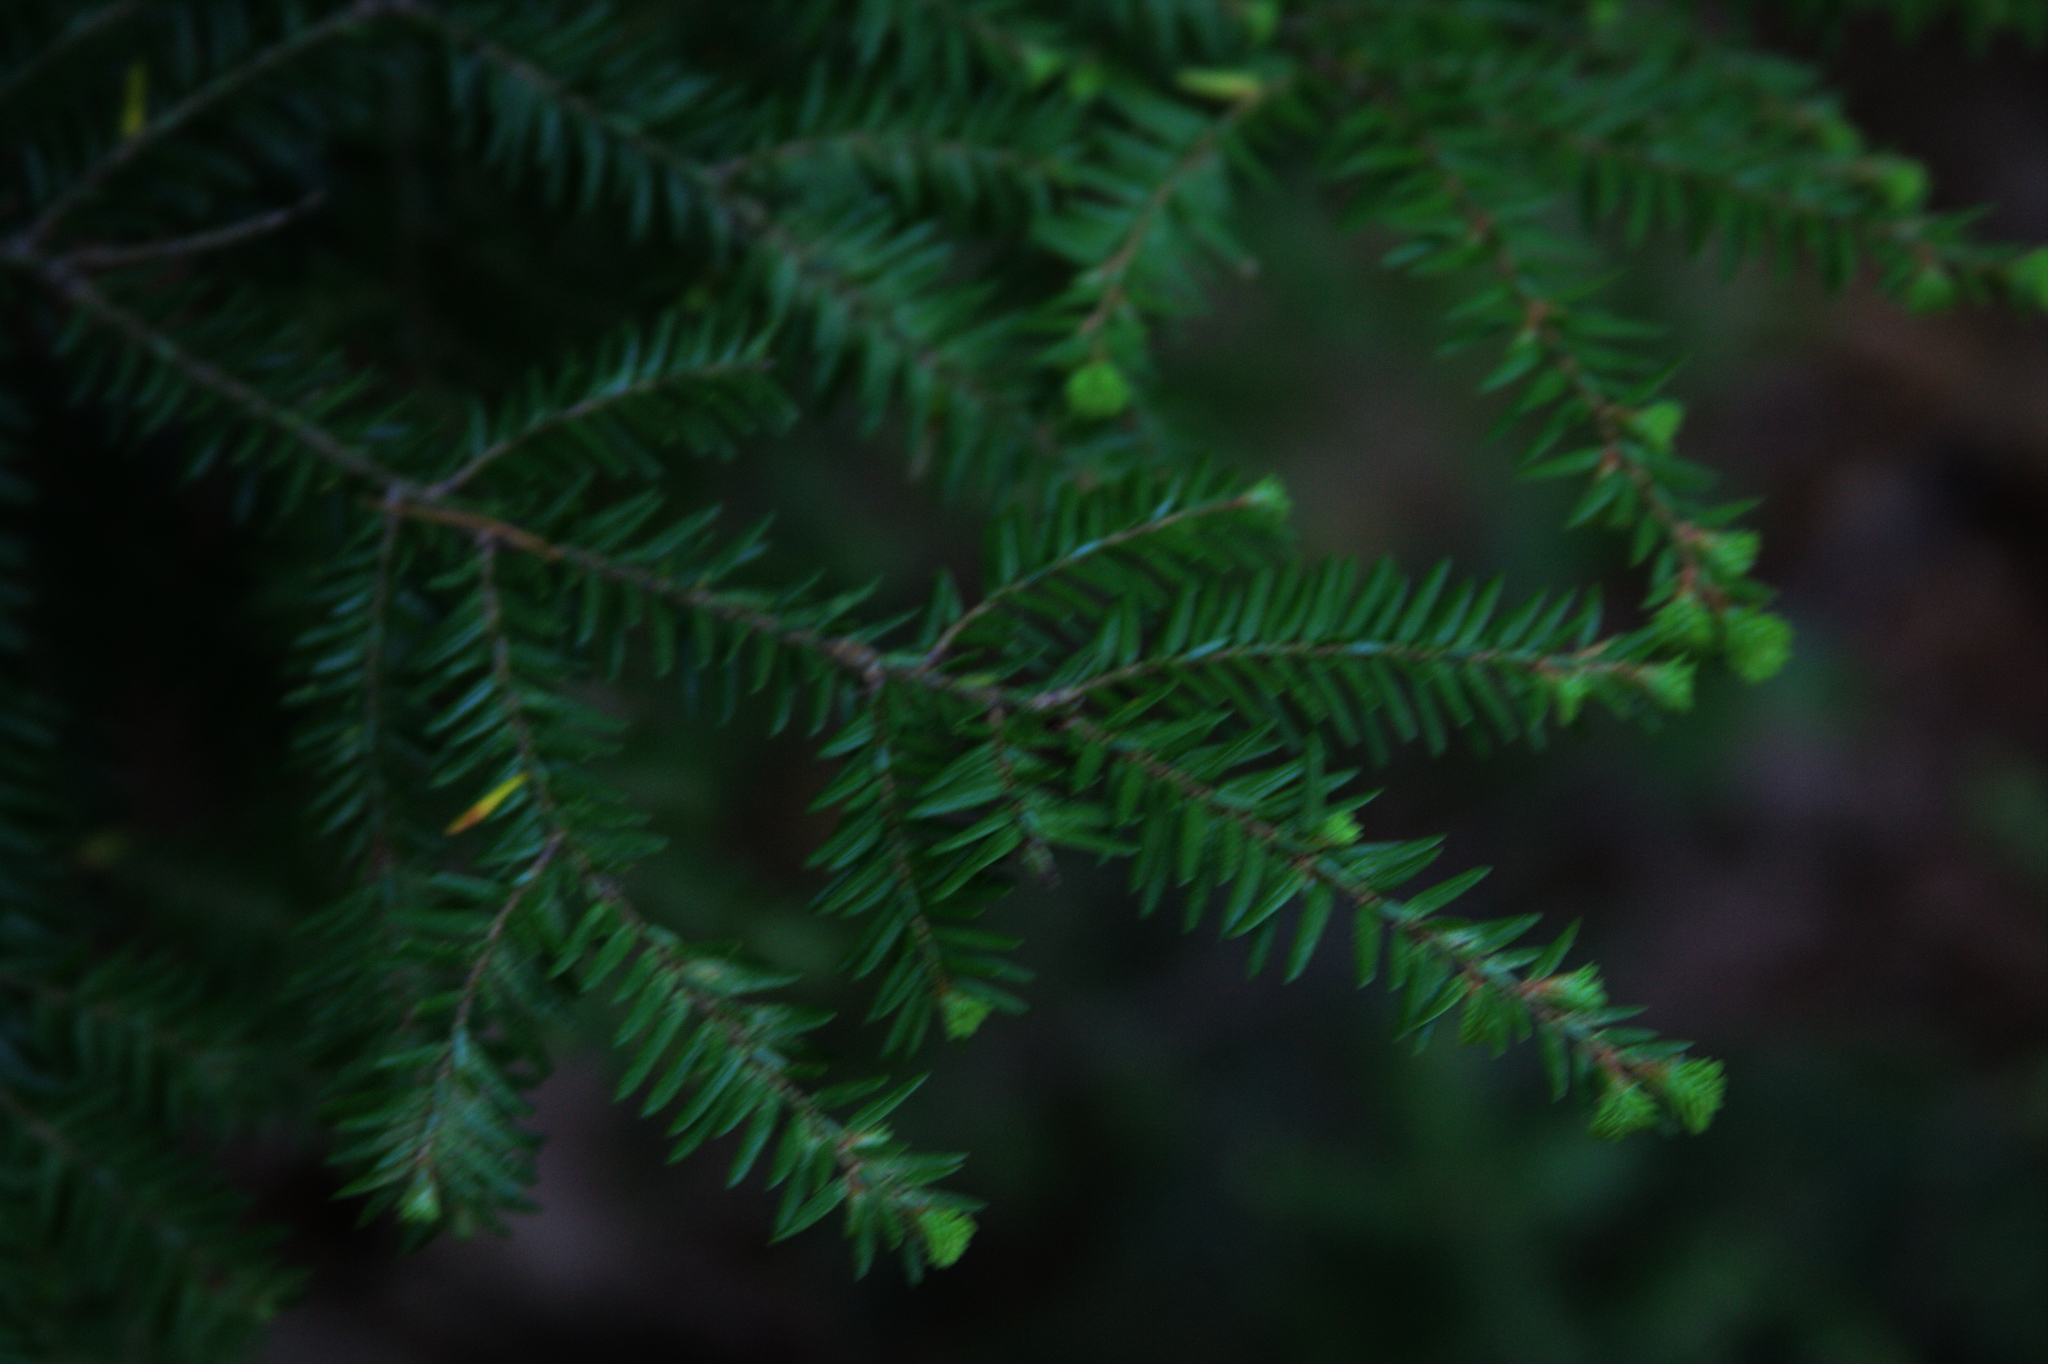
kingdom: Plantae
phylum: Tracheophyta
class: Pinopsida
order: Pinales
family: Pinaceae
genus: Tsuga
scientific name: Tsuga canadensis
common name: Eastern hemlock
